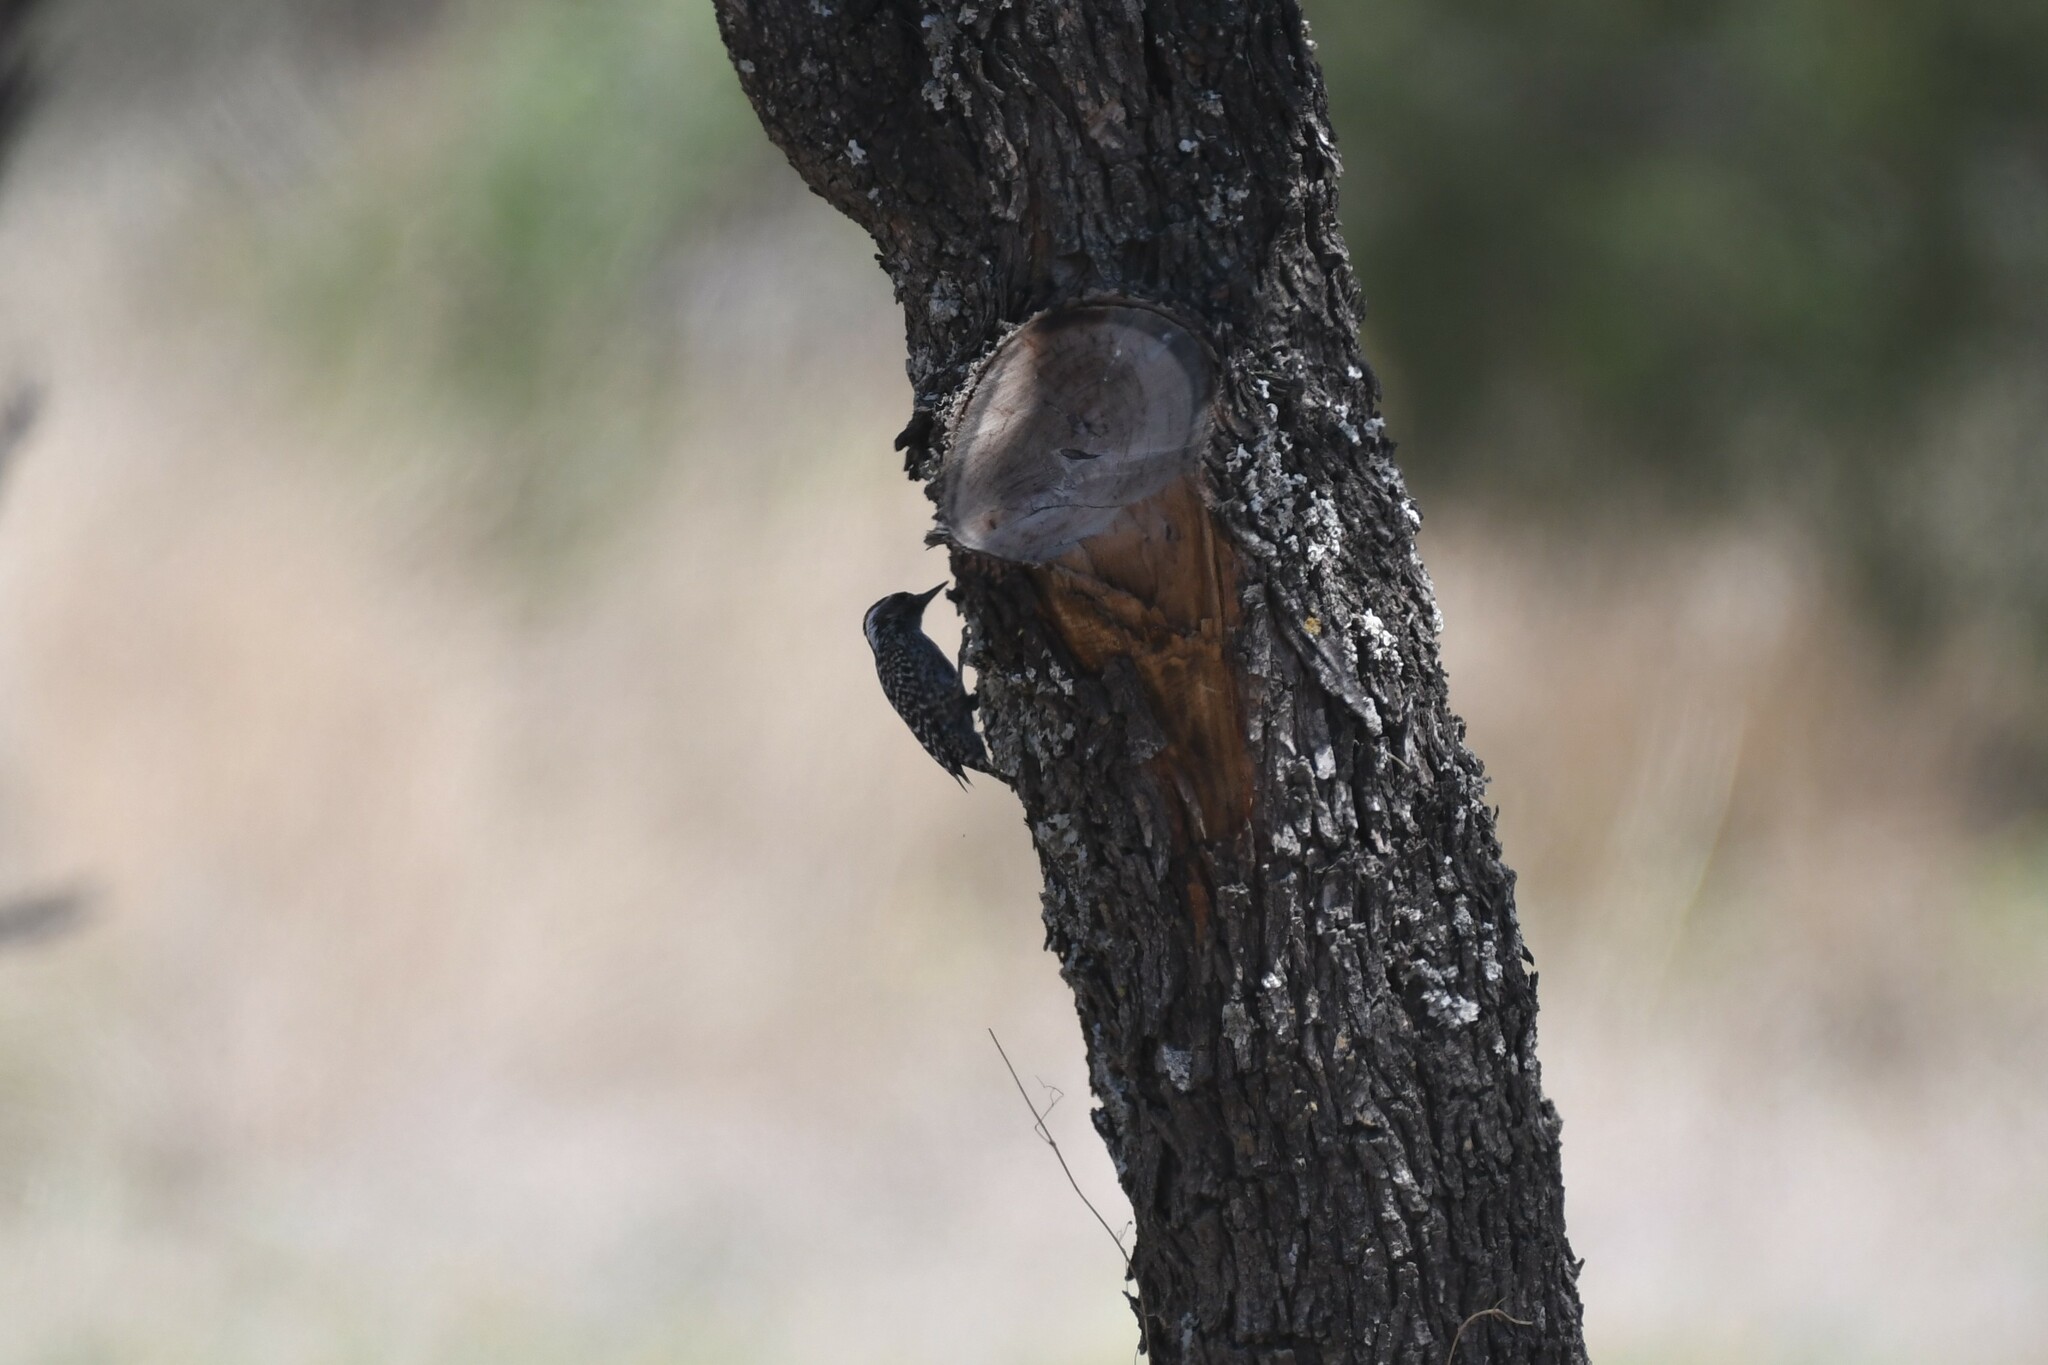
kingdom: Animalia
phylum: Chordata
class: Aves
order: Piciformes
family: Picidae
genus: Veniliornis
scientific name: Veniliornis mixtus
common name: Checkered woodpecker
